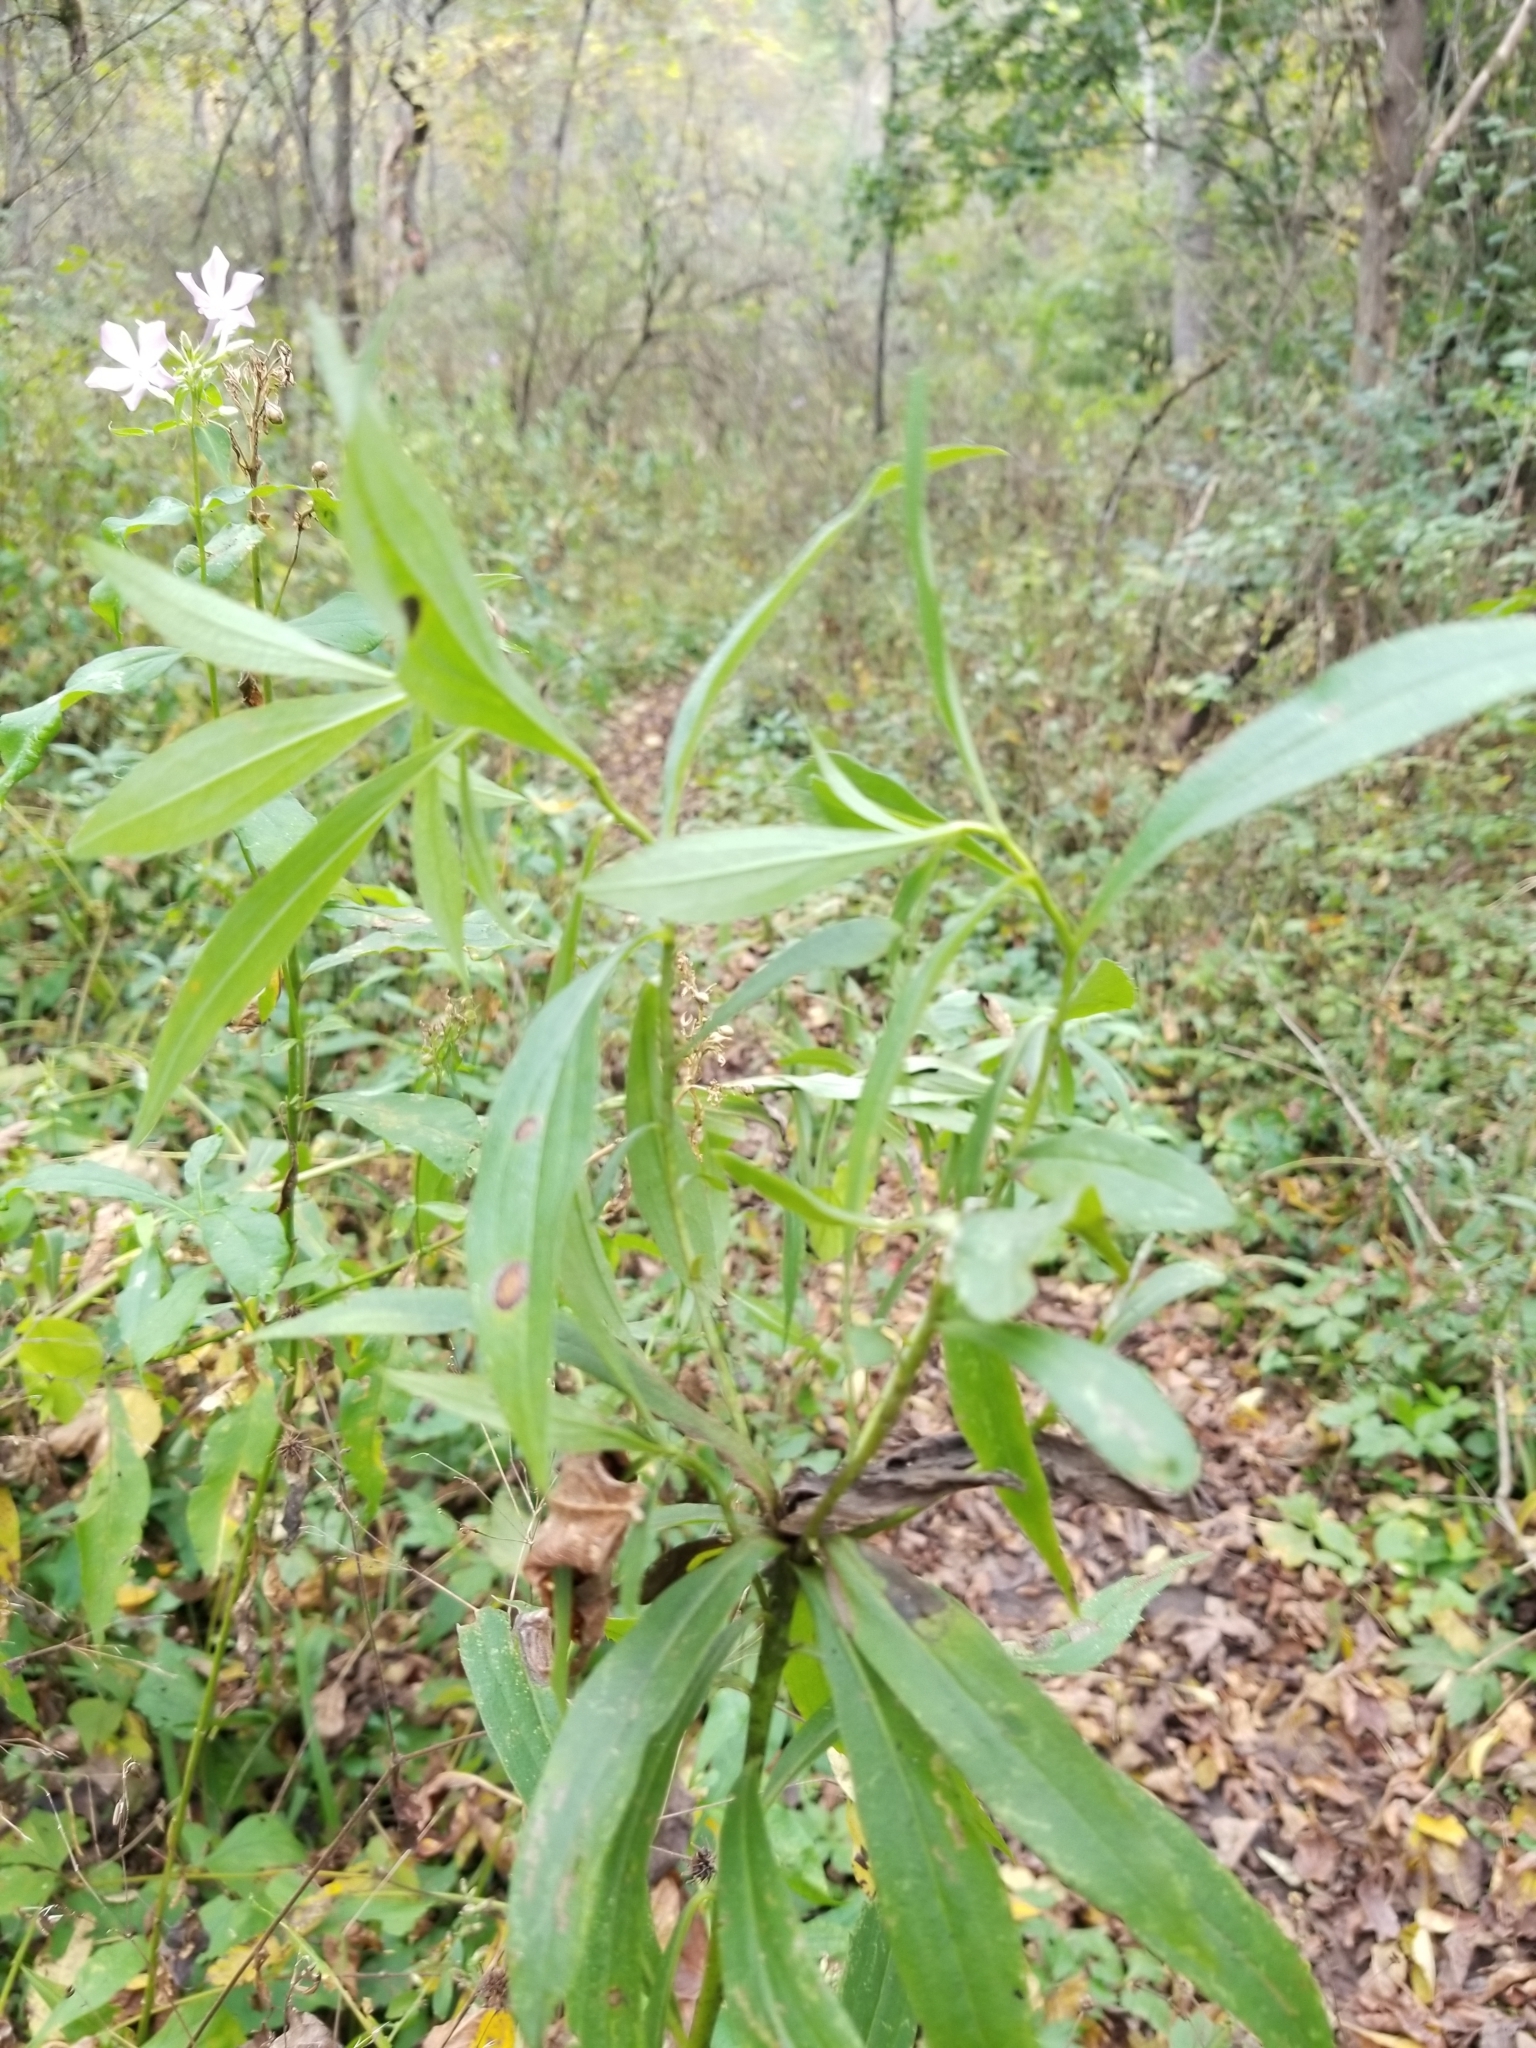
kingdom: Animalia
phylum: Arthropoda
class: Insecta
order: Diptera
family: Cecidomyiidae
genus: Dasineura
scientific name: Dasineura folliculi
